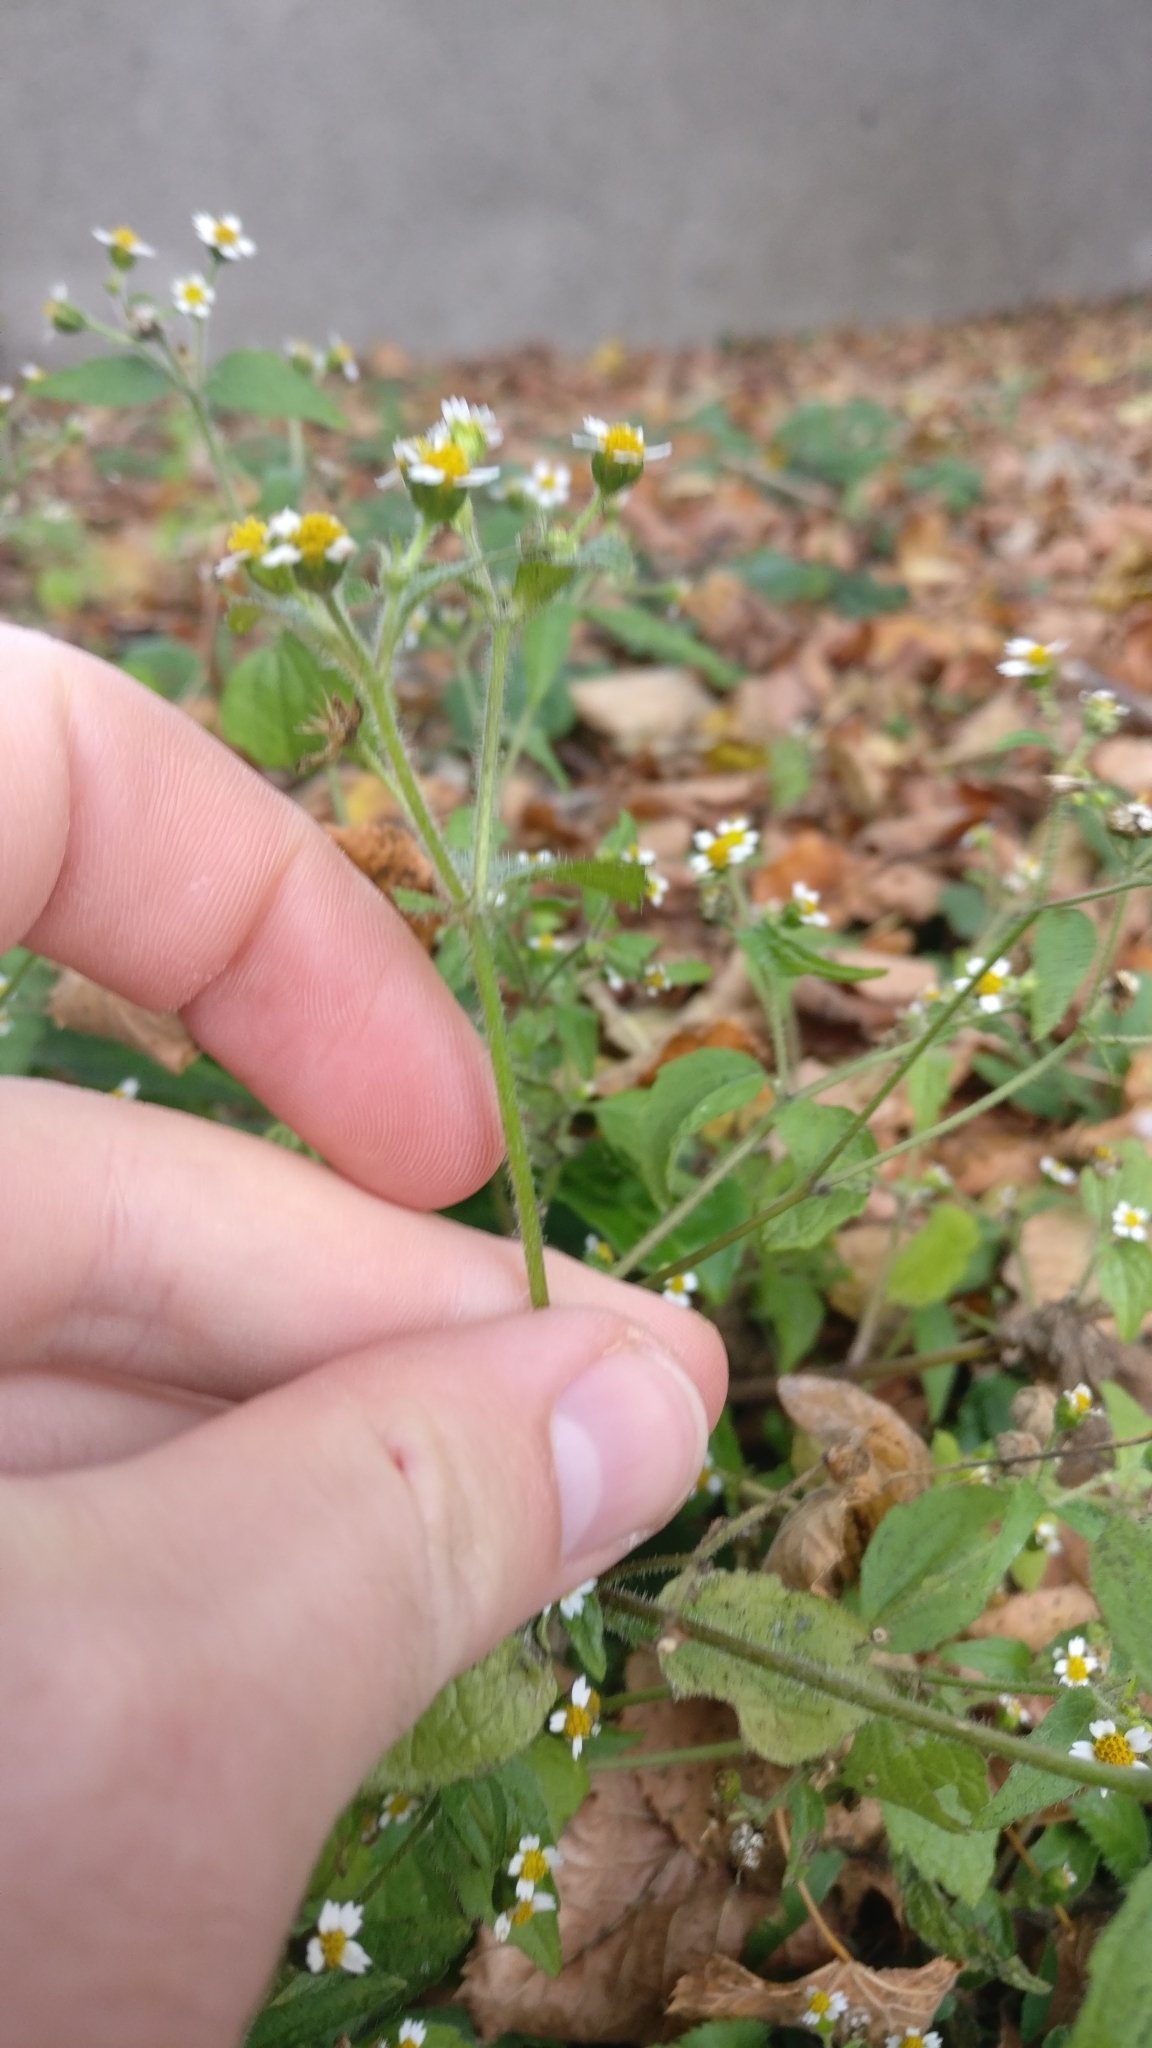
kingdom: Plantae
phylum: Tracheophyta
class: Magnoliopsida
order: Asterales
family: Asteraceae
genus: Galinsoga
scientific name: Galinsoga quadriradiata
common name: Shaggy soldier
